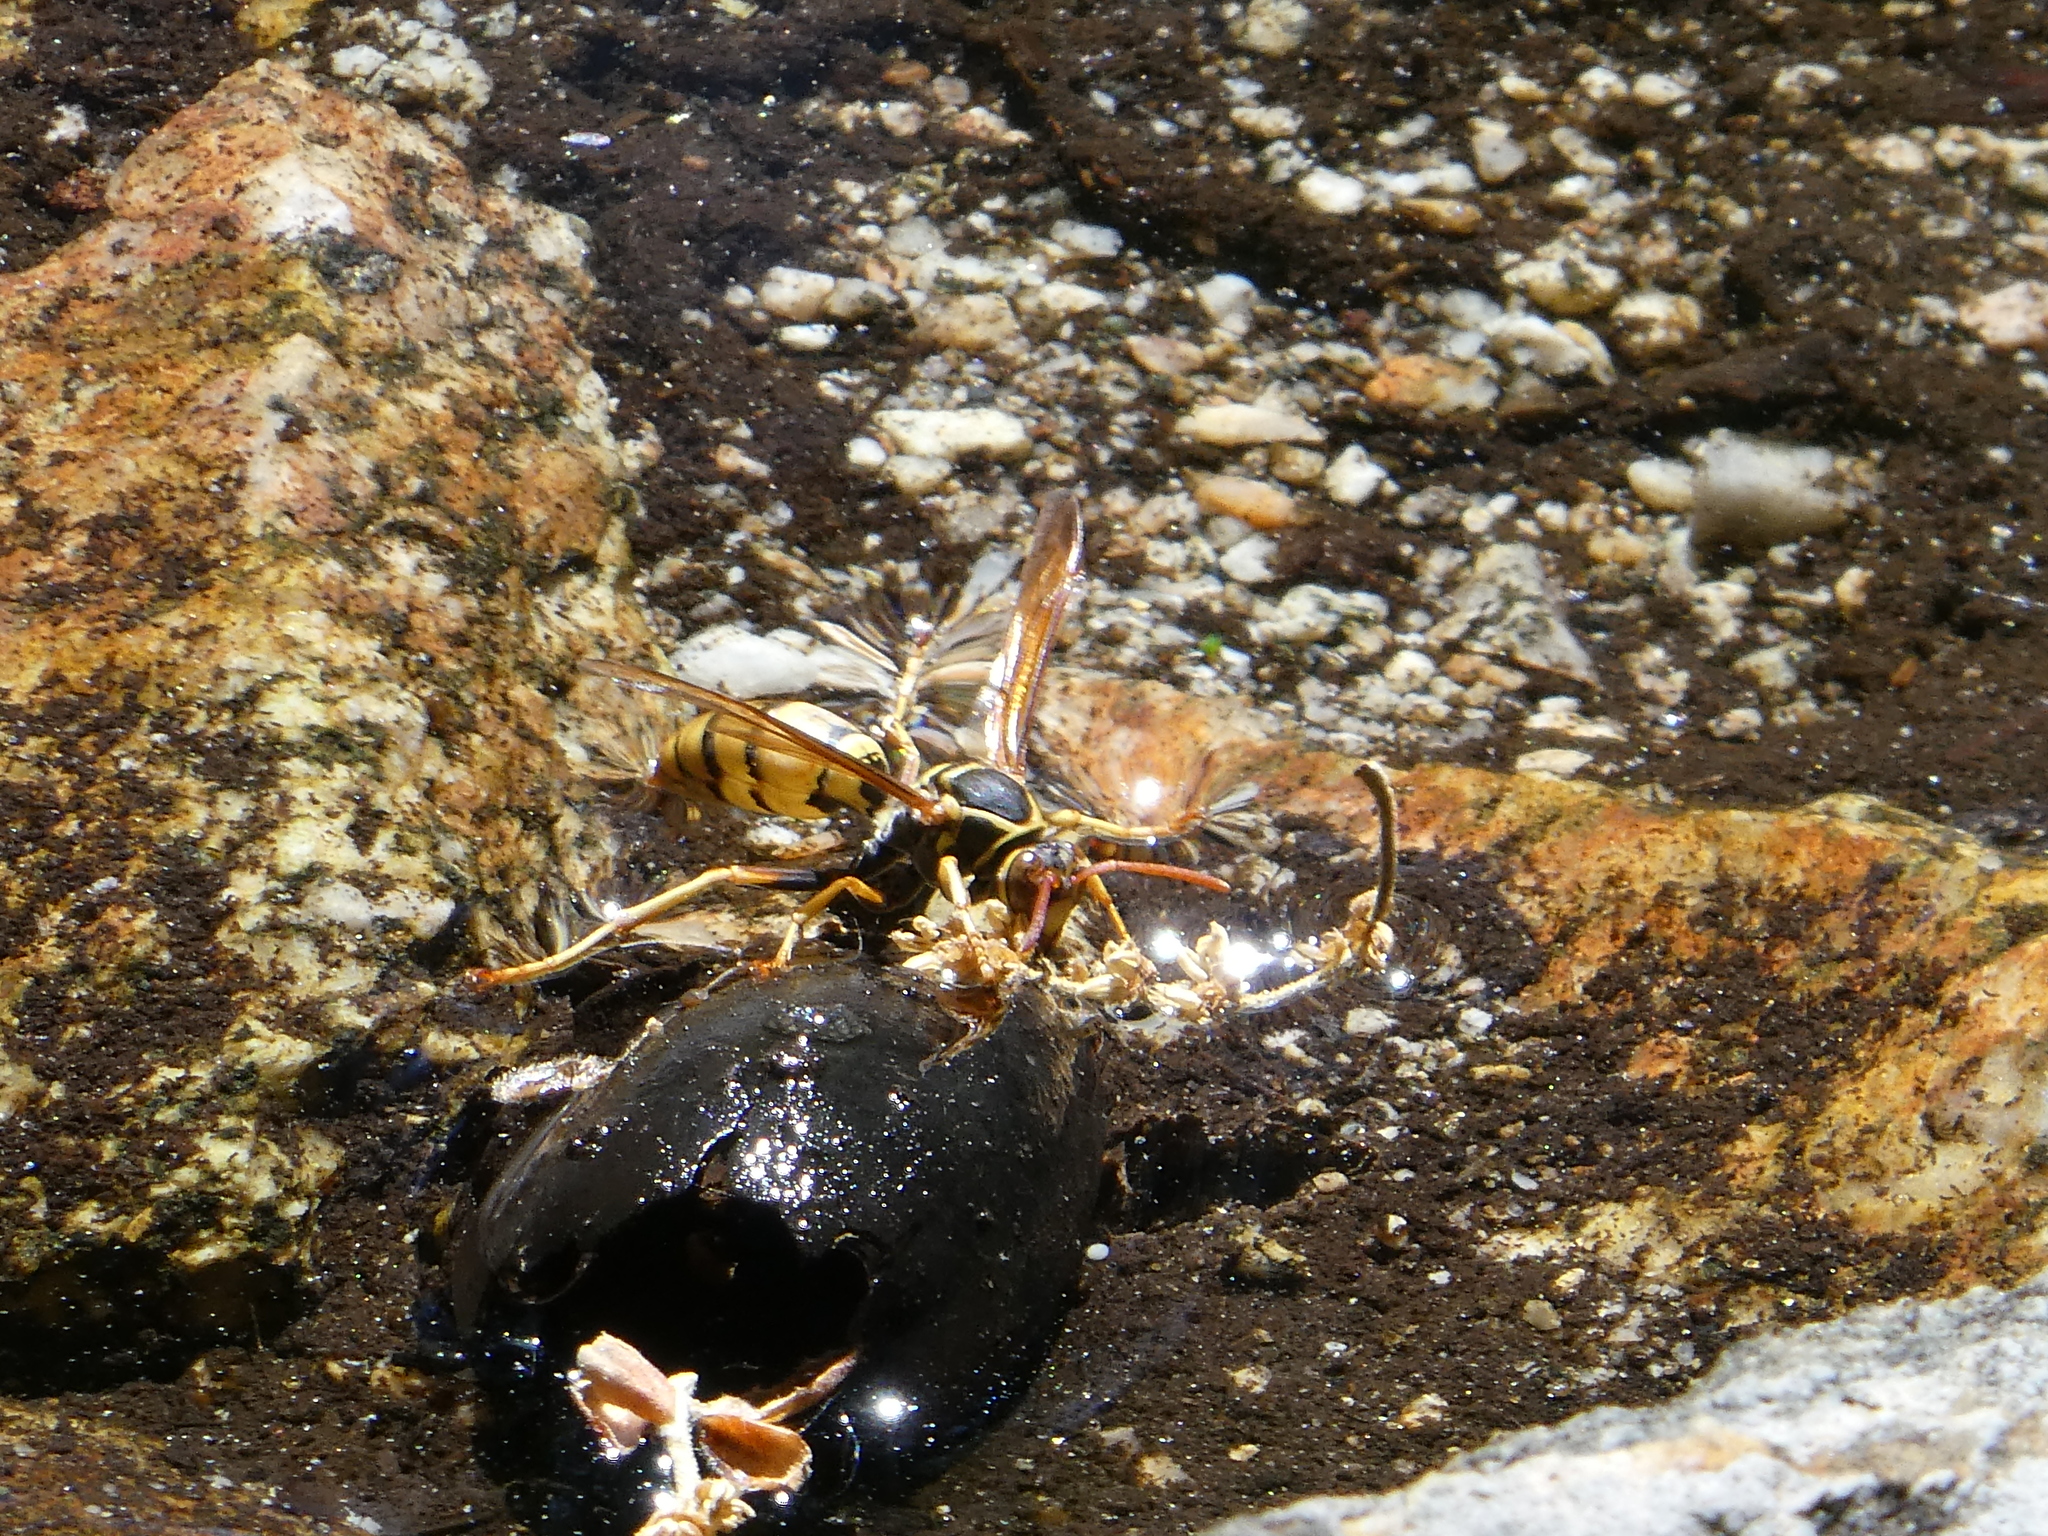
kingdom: Animalia
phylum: Arthropoda
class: Insecta
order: Hymenoptera
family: Eumenidae
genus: Polistes
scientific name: Polistes aurifer
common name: Paper wasp
